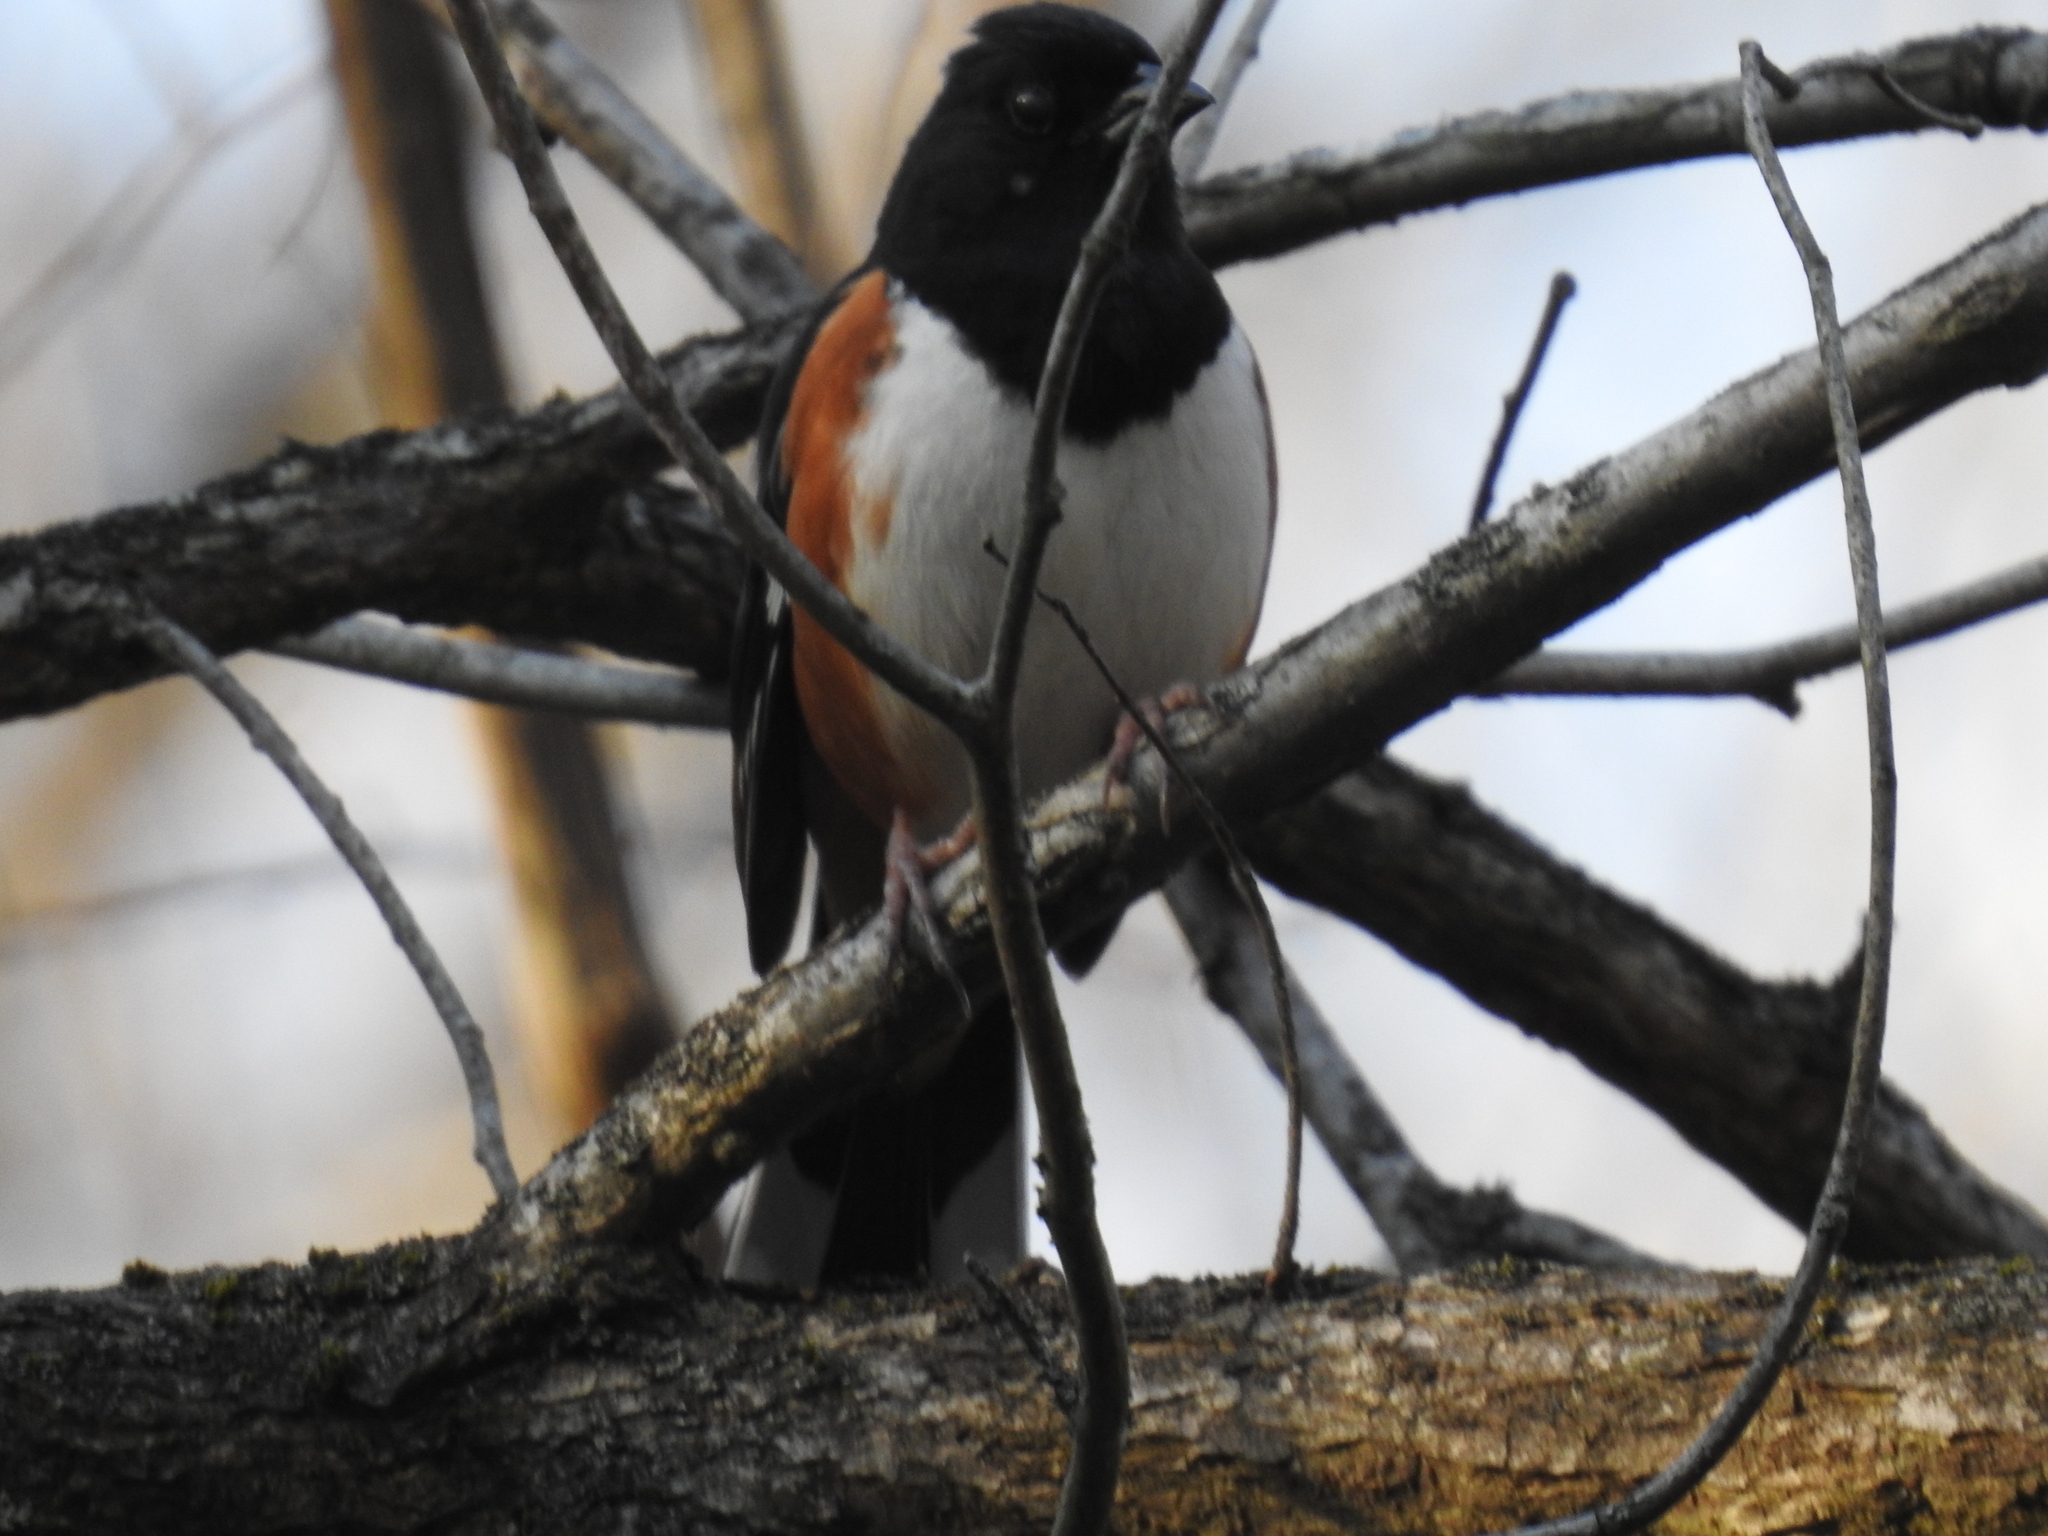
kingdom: Animalia
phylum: Chordata
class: Aves
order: Passeriformes
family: Passerellidae
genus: Pipilo
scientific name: Pipilo erythrophthalmus
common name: Eastern towhee
